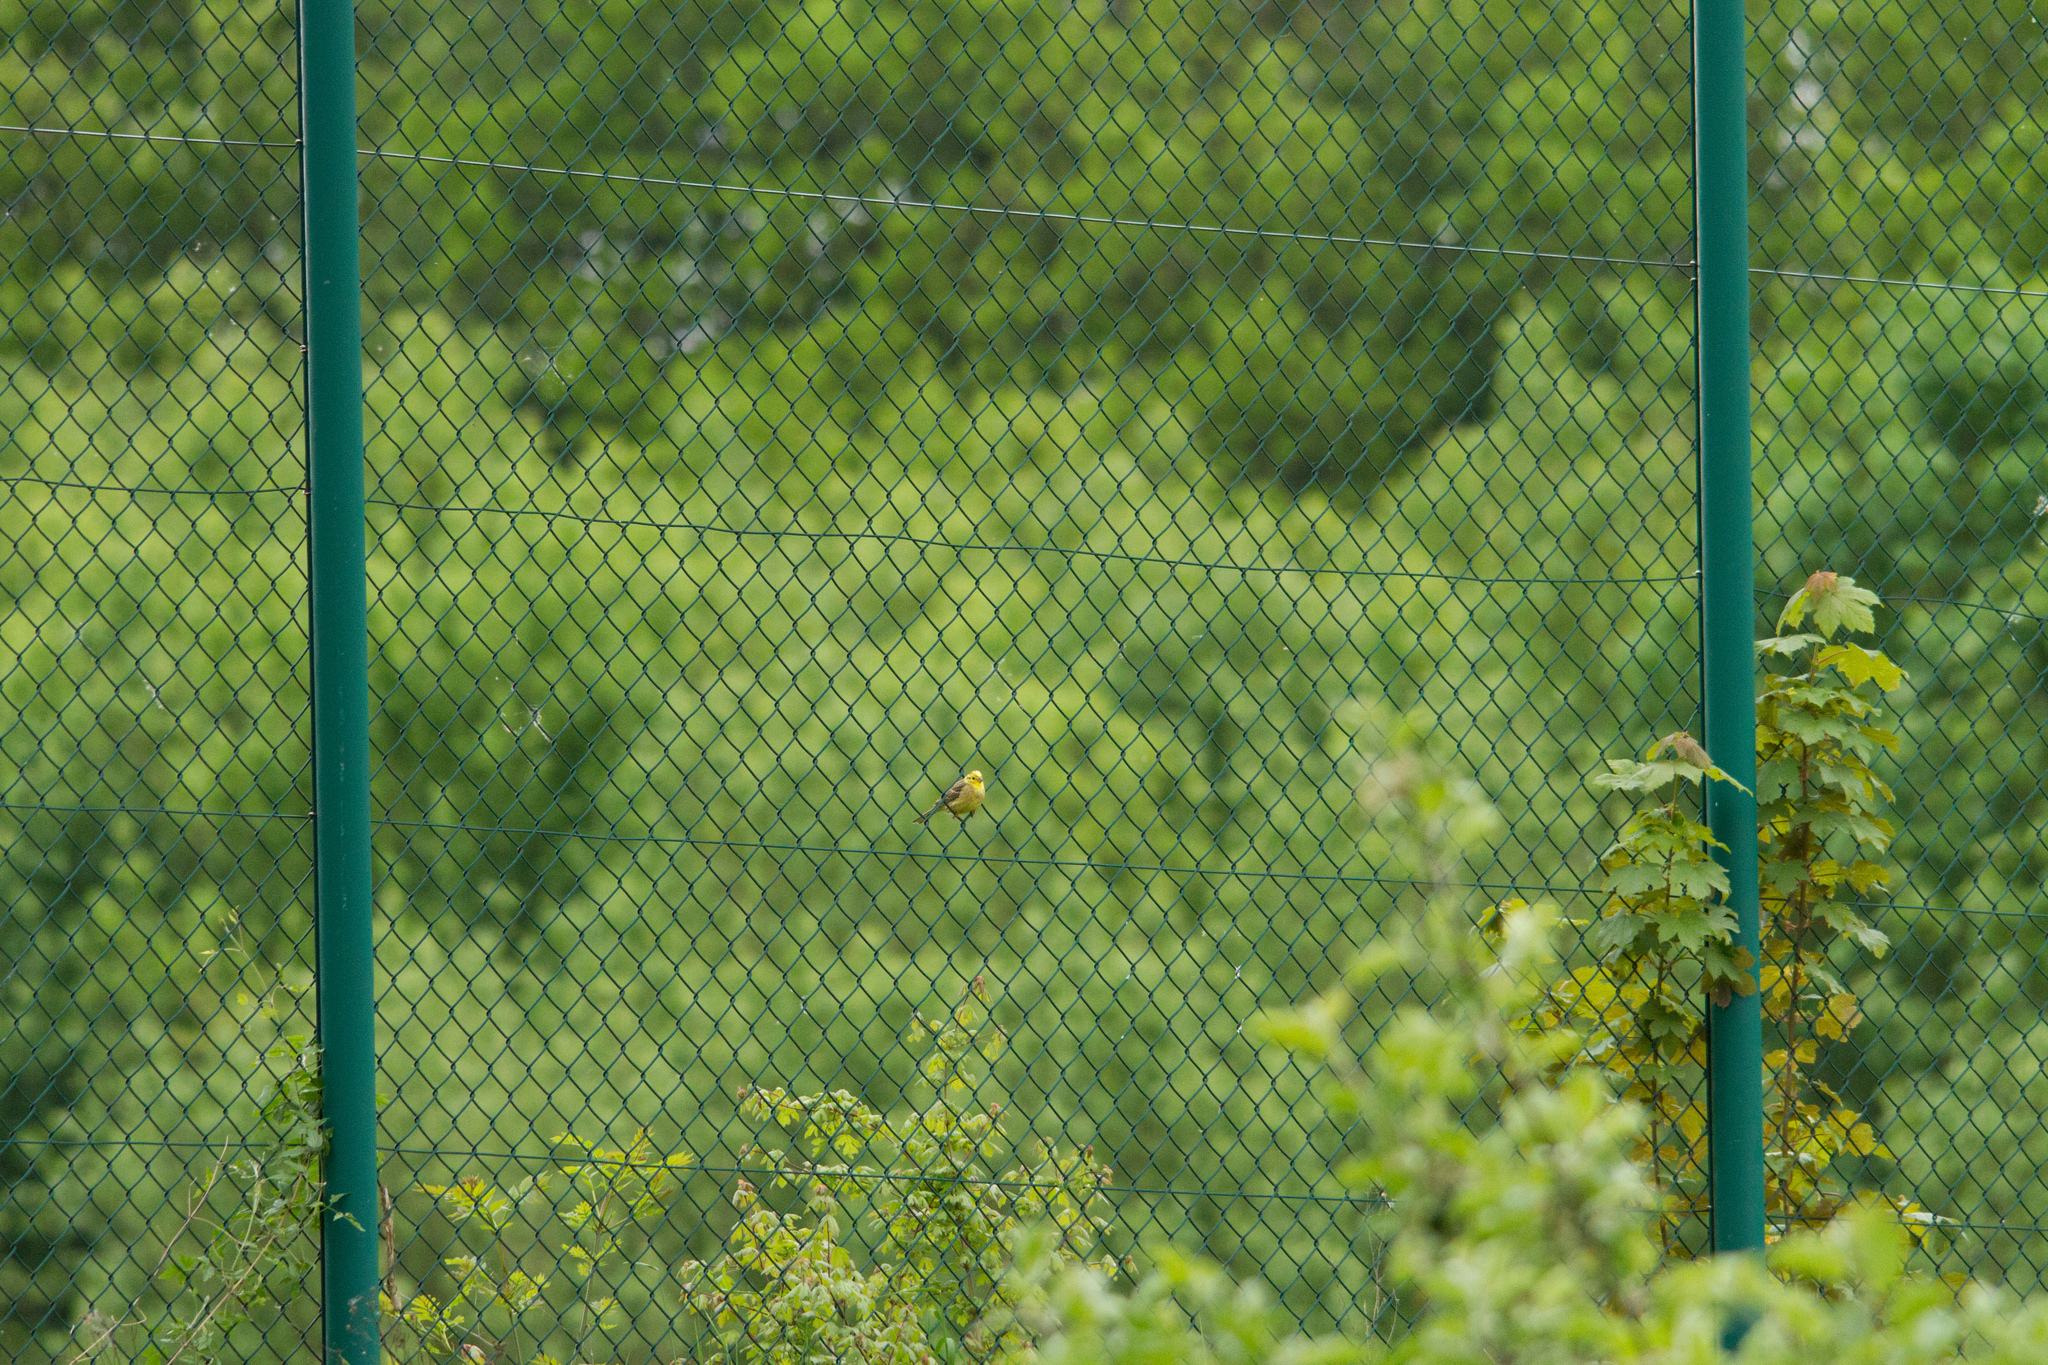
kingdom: Animalia
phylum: Chordata
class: Aves
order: Passeriformes
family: Emberizidae
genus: Emberiza
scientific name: Emberiza citrinella
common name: Yellowhammer
